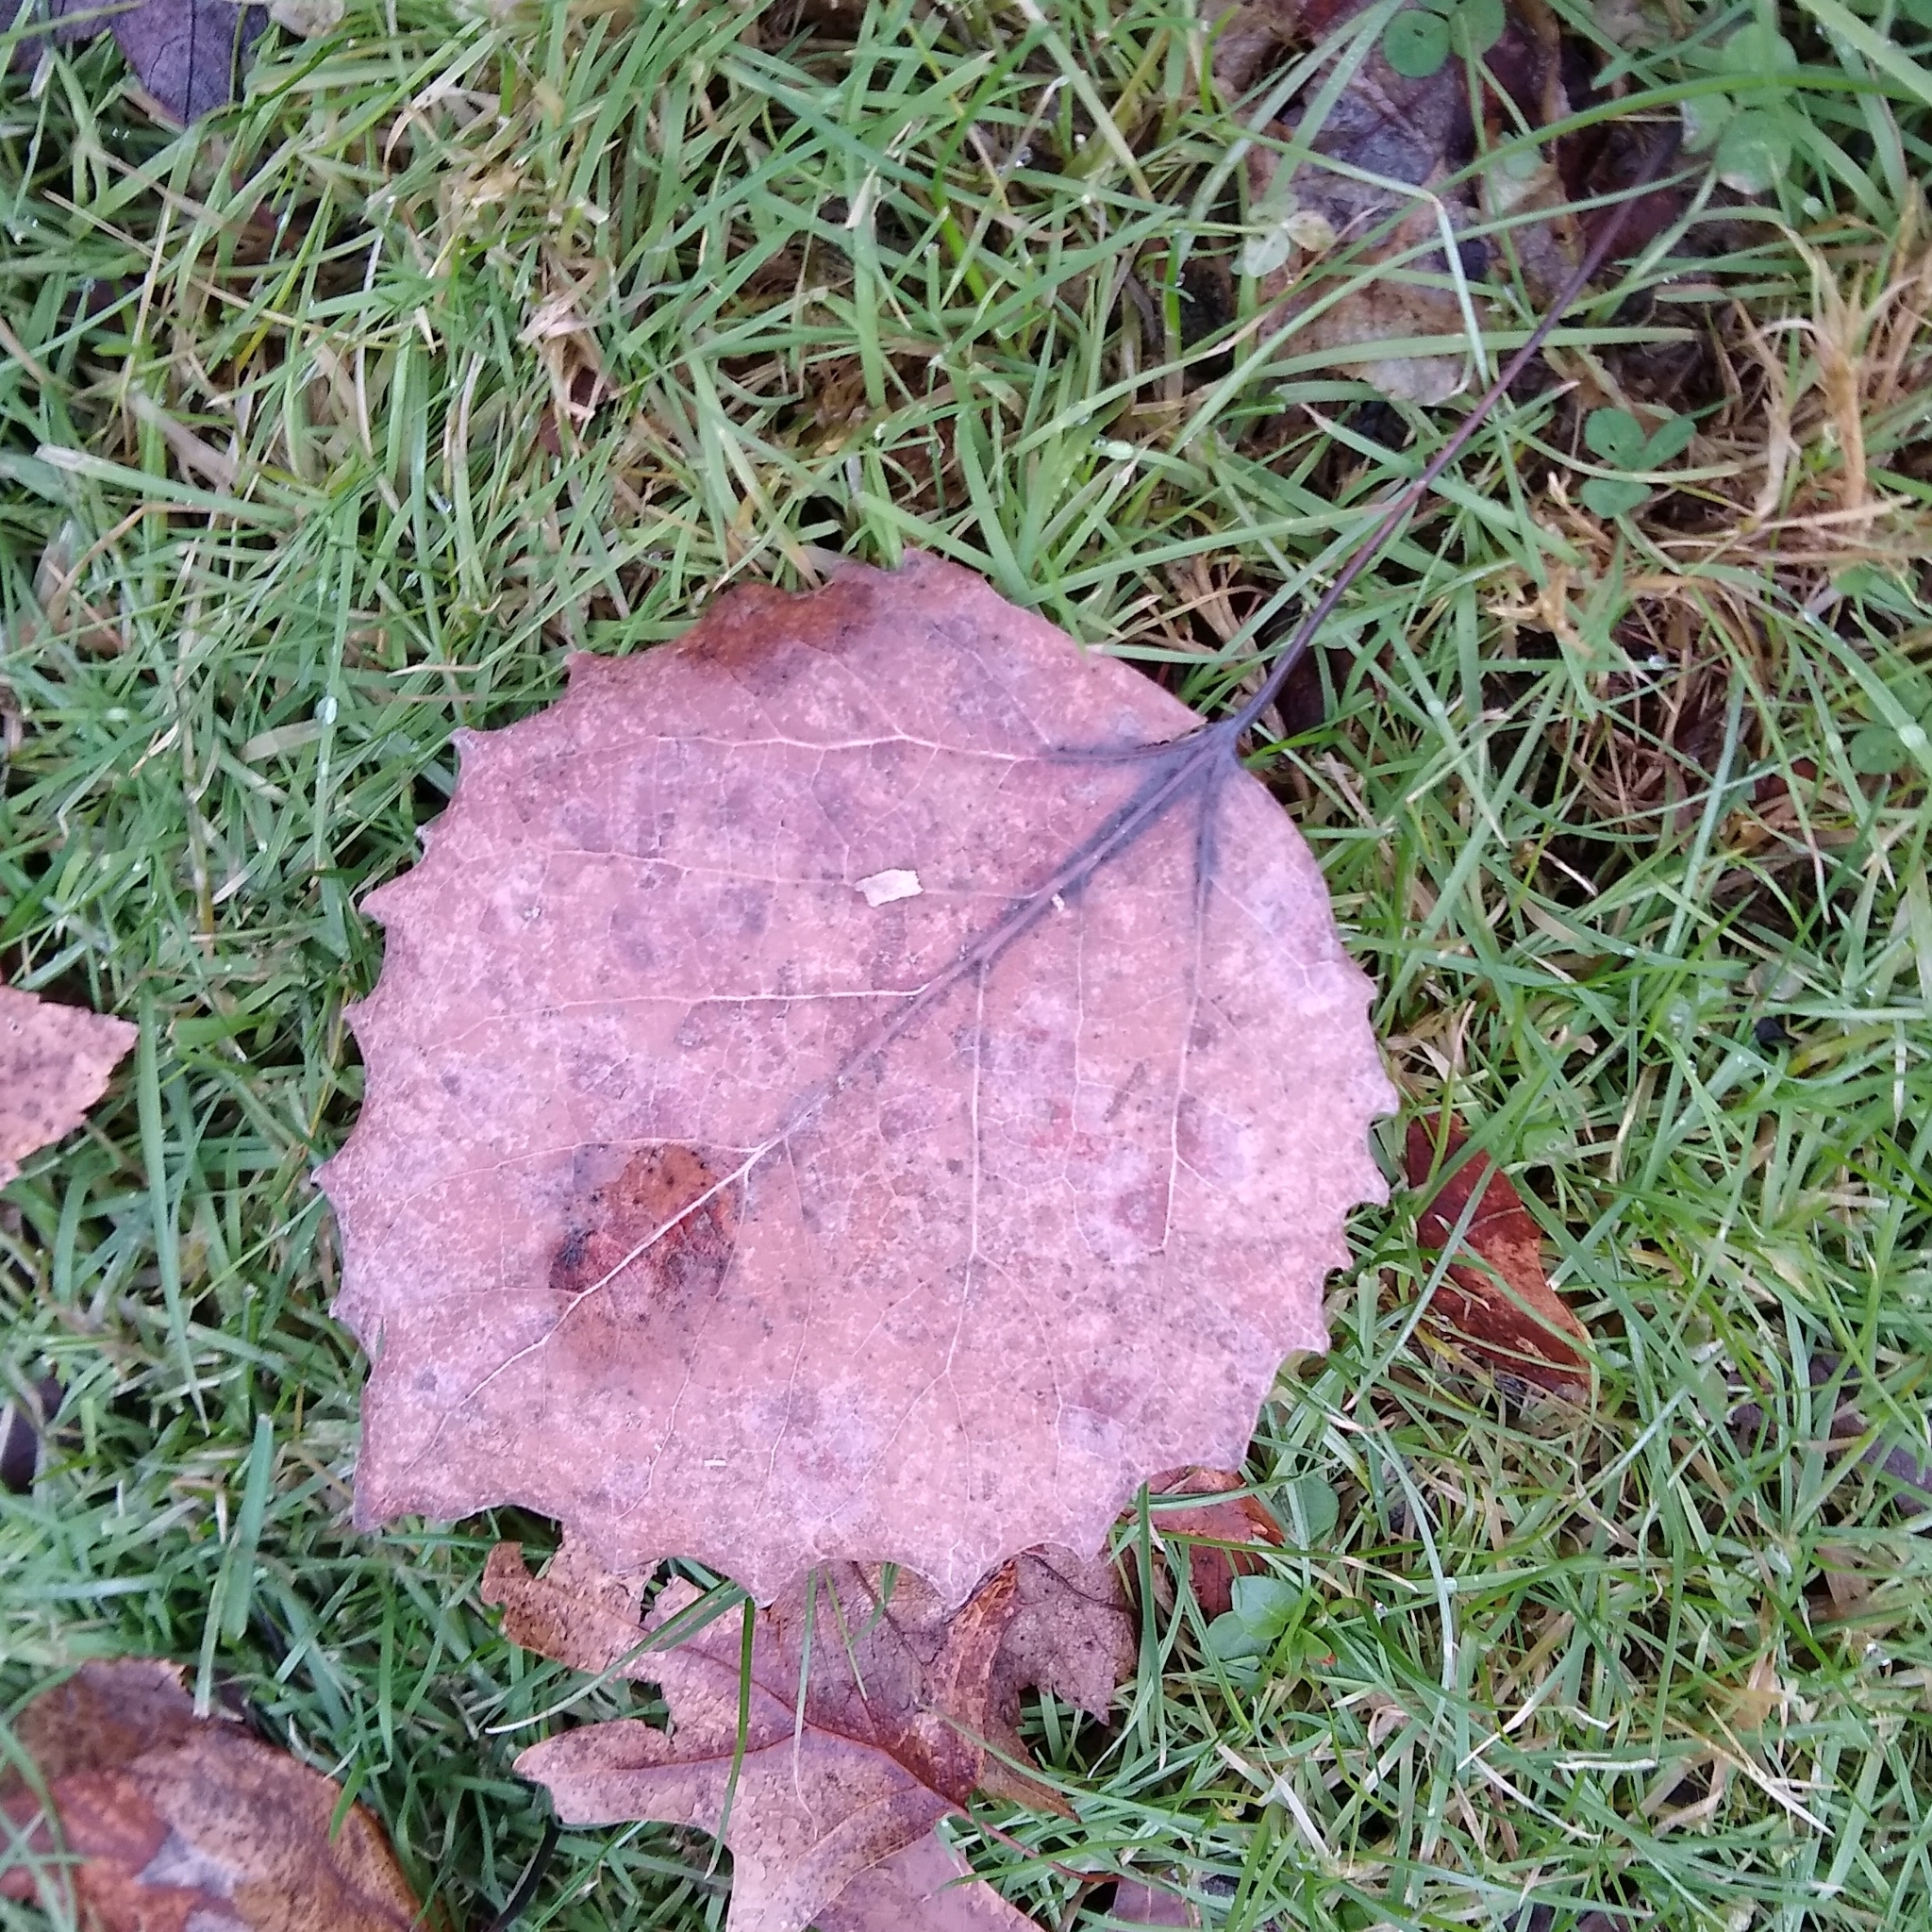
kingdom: Plantae
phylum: Tracheophyta
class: Magnoliopsida
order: Malpighiales
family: Salicaceae
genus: Populus
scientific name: Populus grandidentata
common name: Bigtooth aspen
